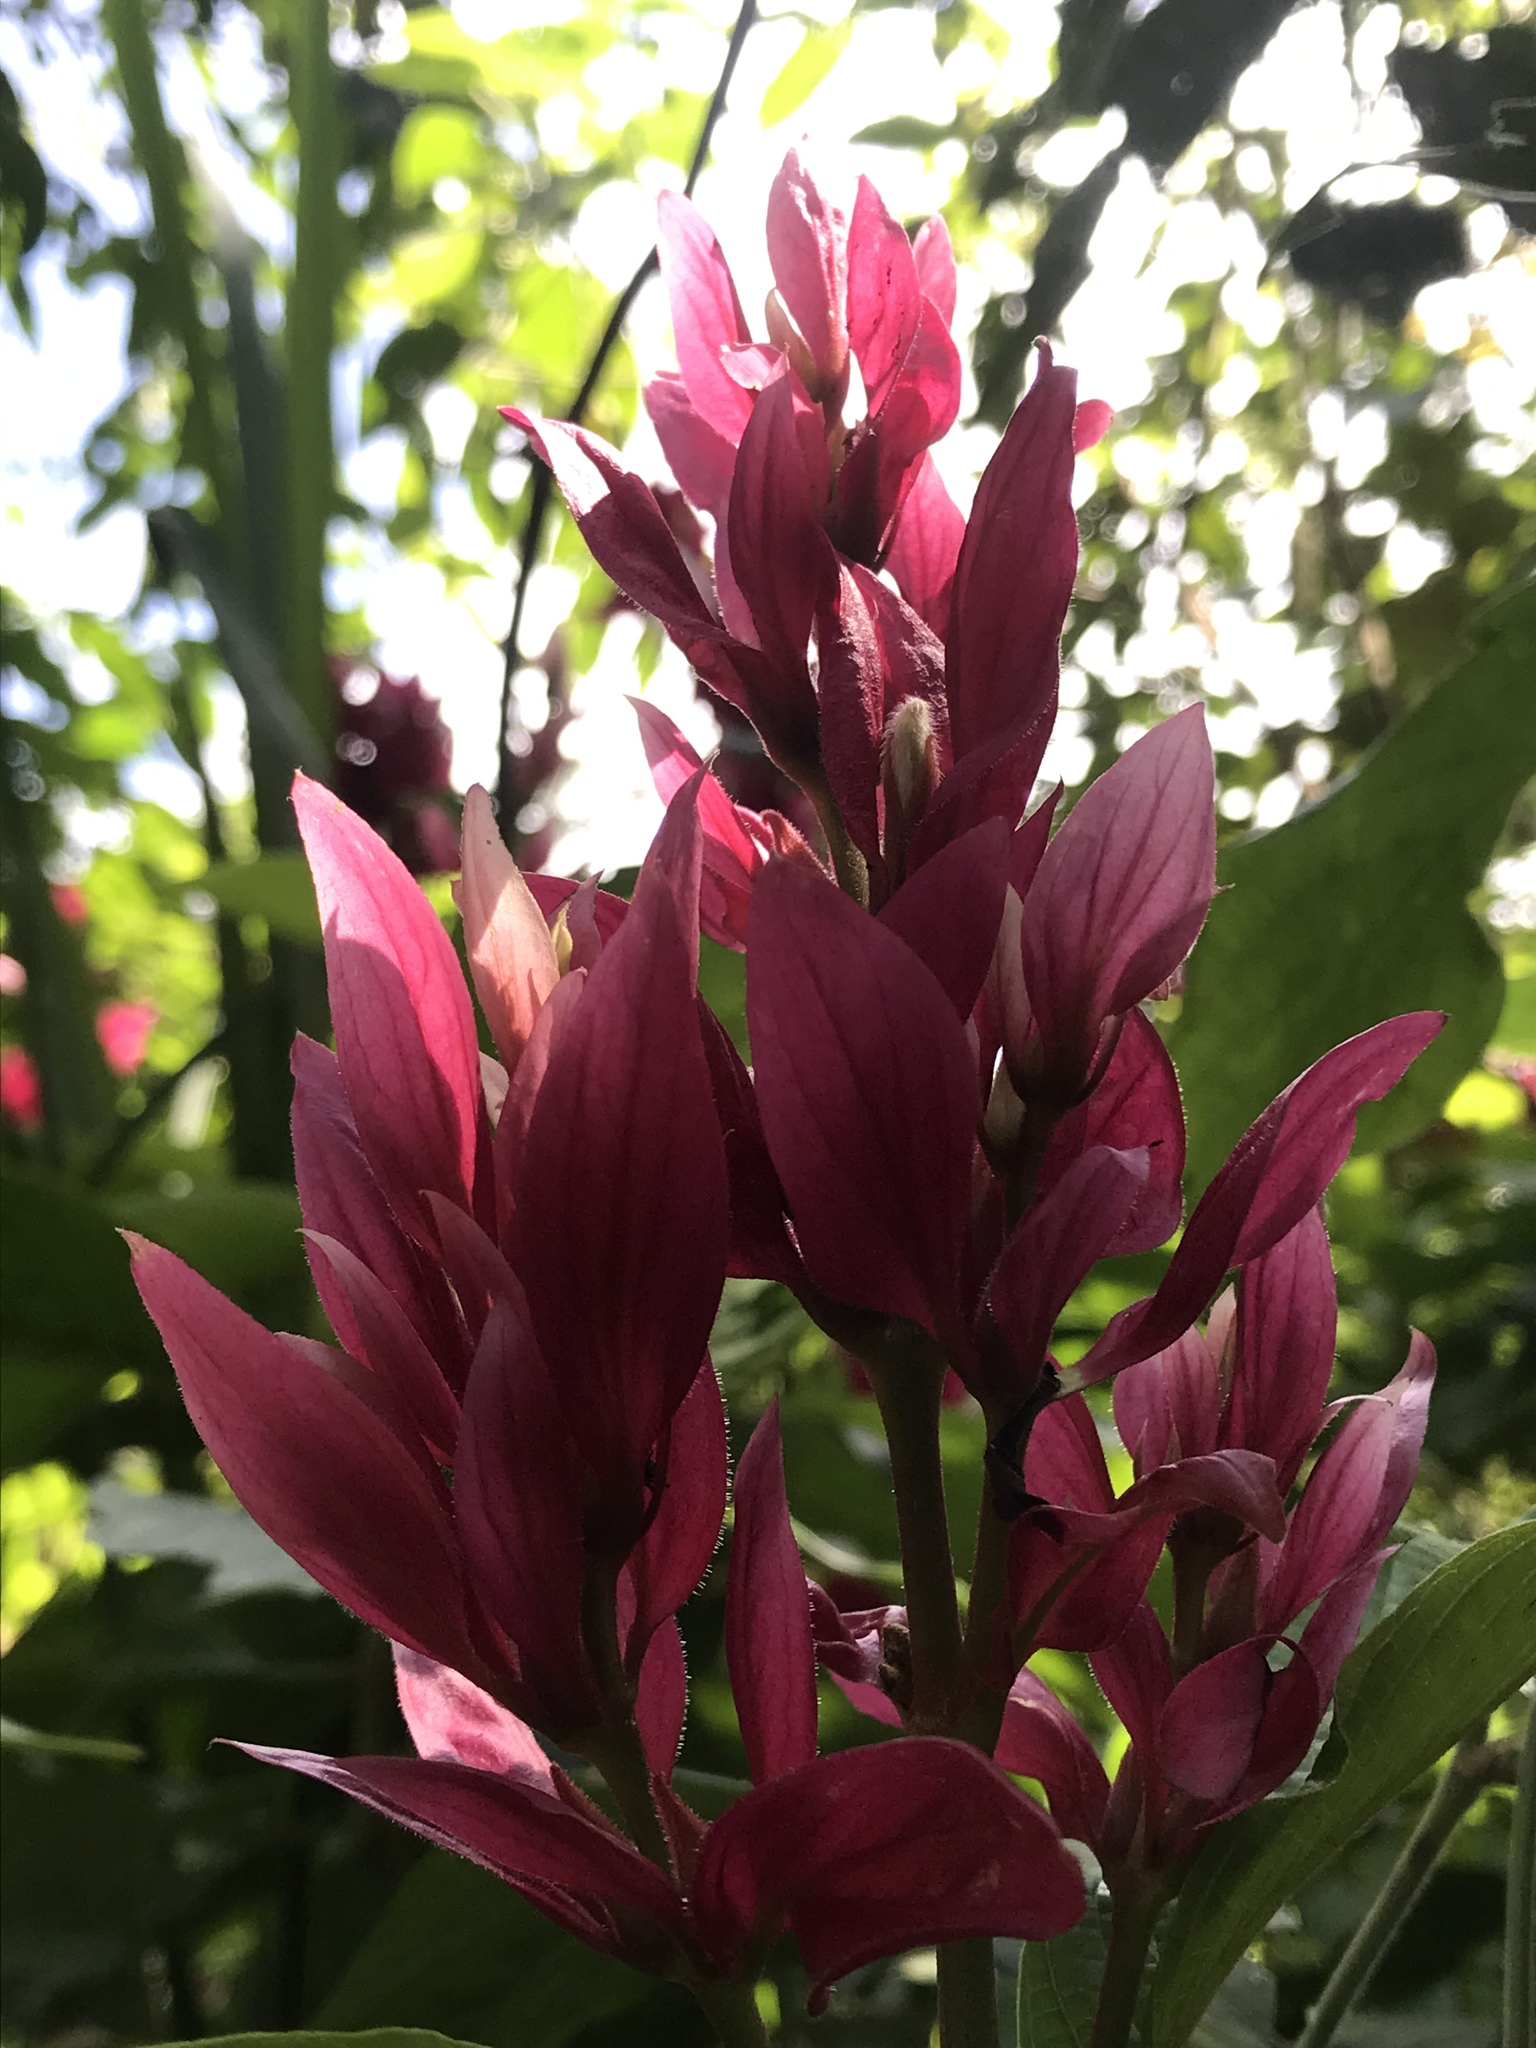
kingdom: Plantae
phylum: Tracheophyta
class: Magnoliopsida
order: Lamiales
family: Acanthaceae
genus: Megaskepasma
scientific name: Megaskepasma erythrochlamys
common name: Brazilian red-cloak
